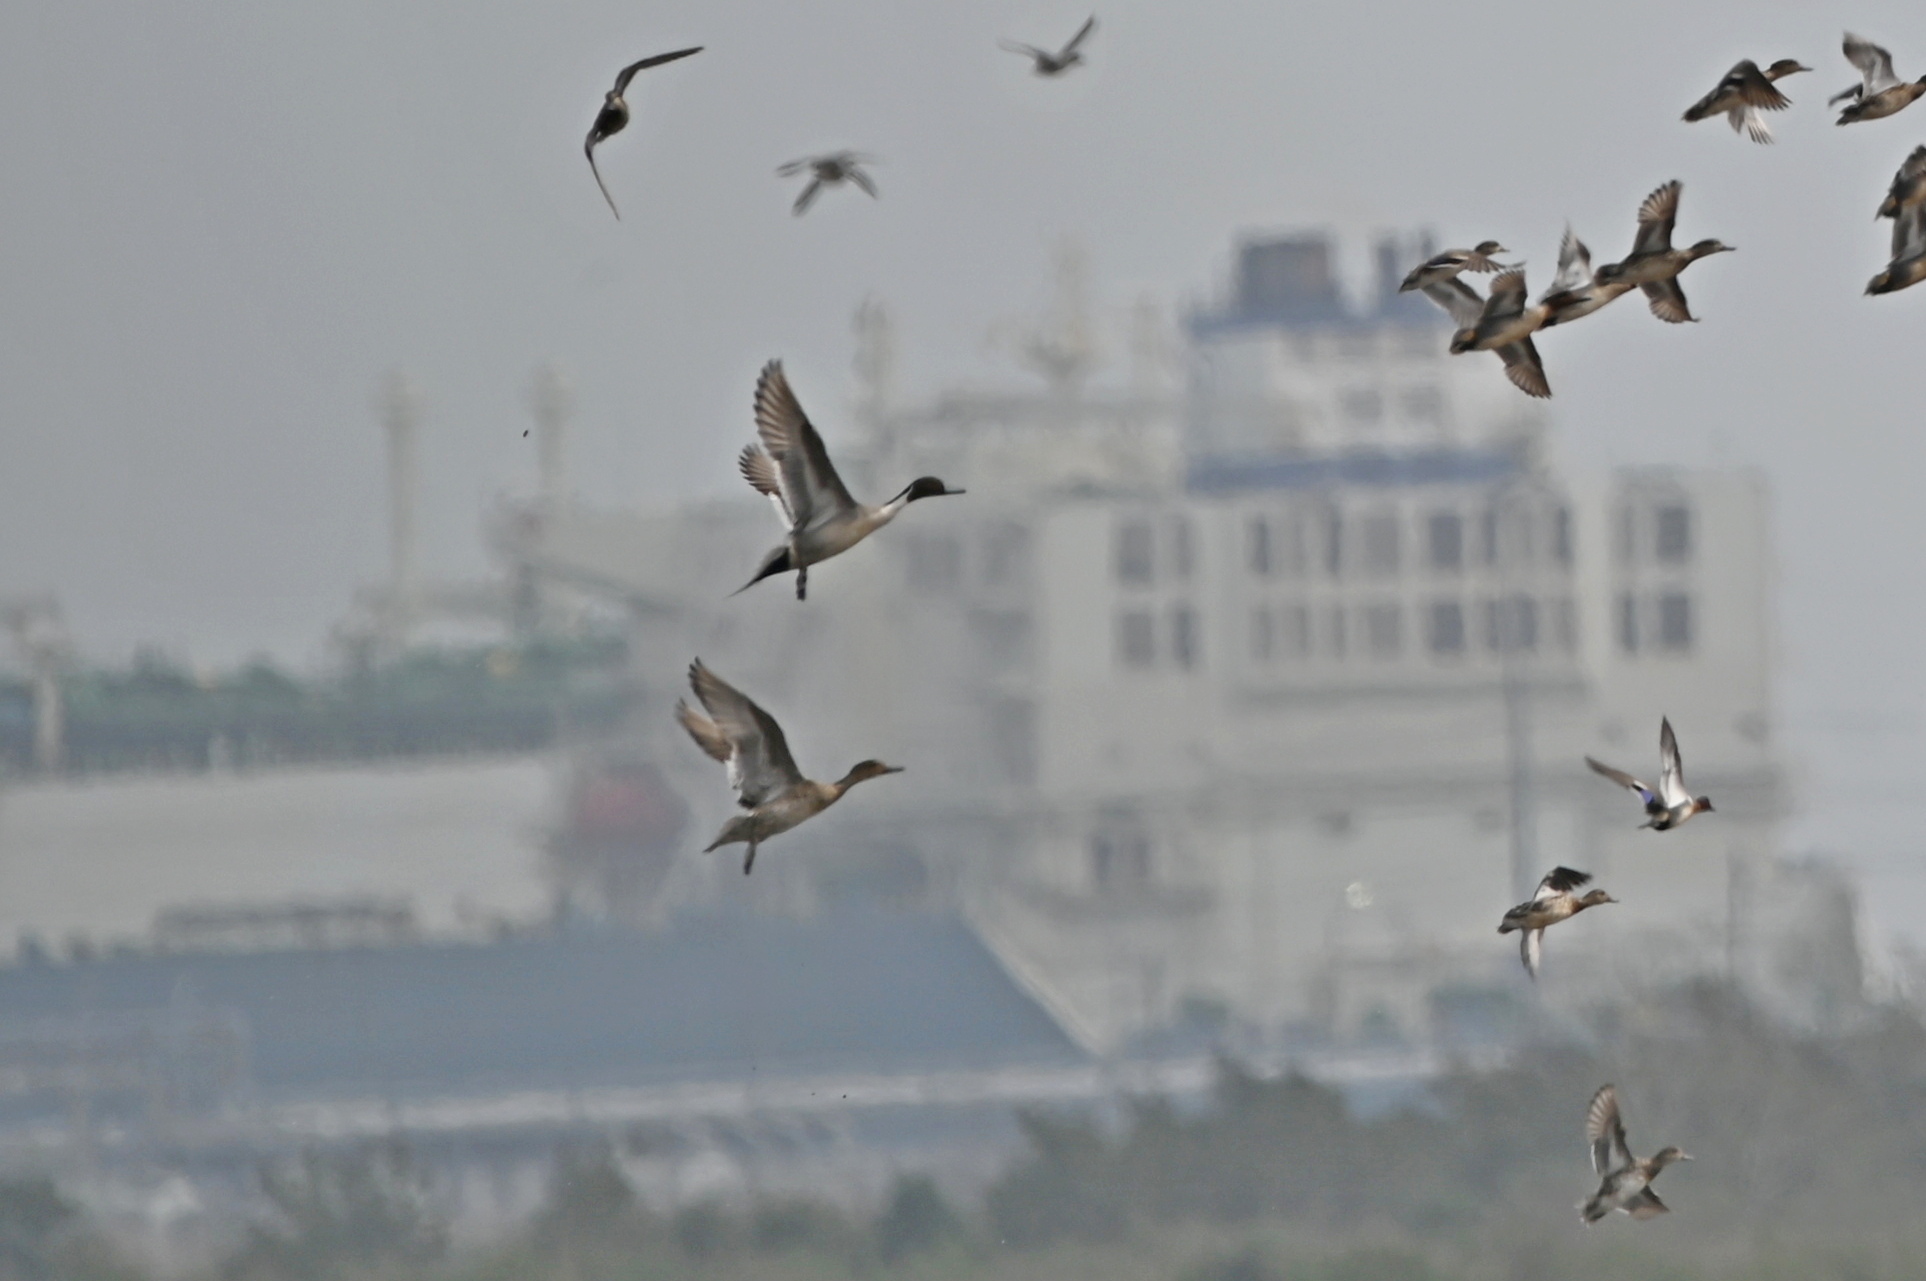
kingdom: Animalia
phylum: Chordata
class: Aves
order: Anseriformes
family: Anatidae
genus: Anas
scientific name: Anas acuta
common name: Northern pintail
